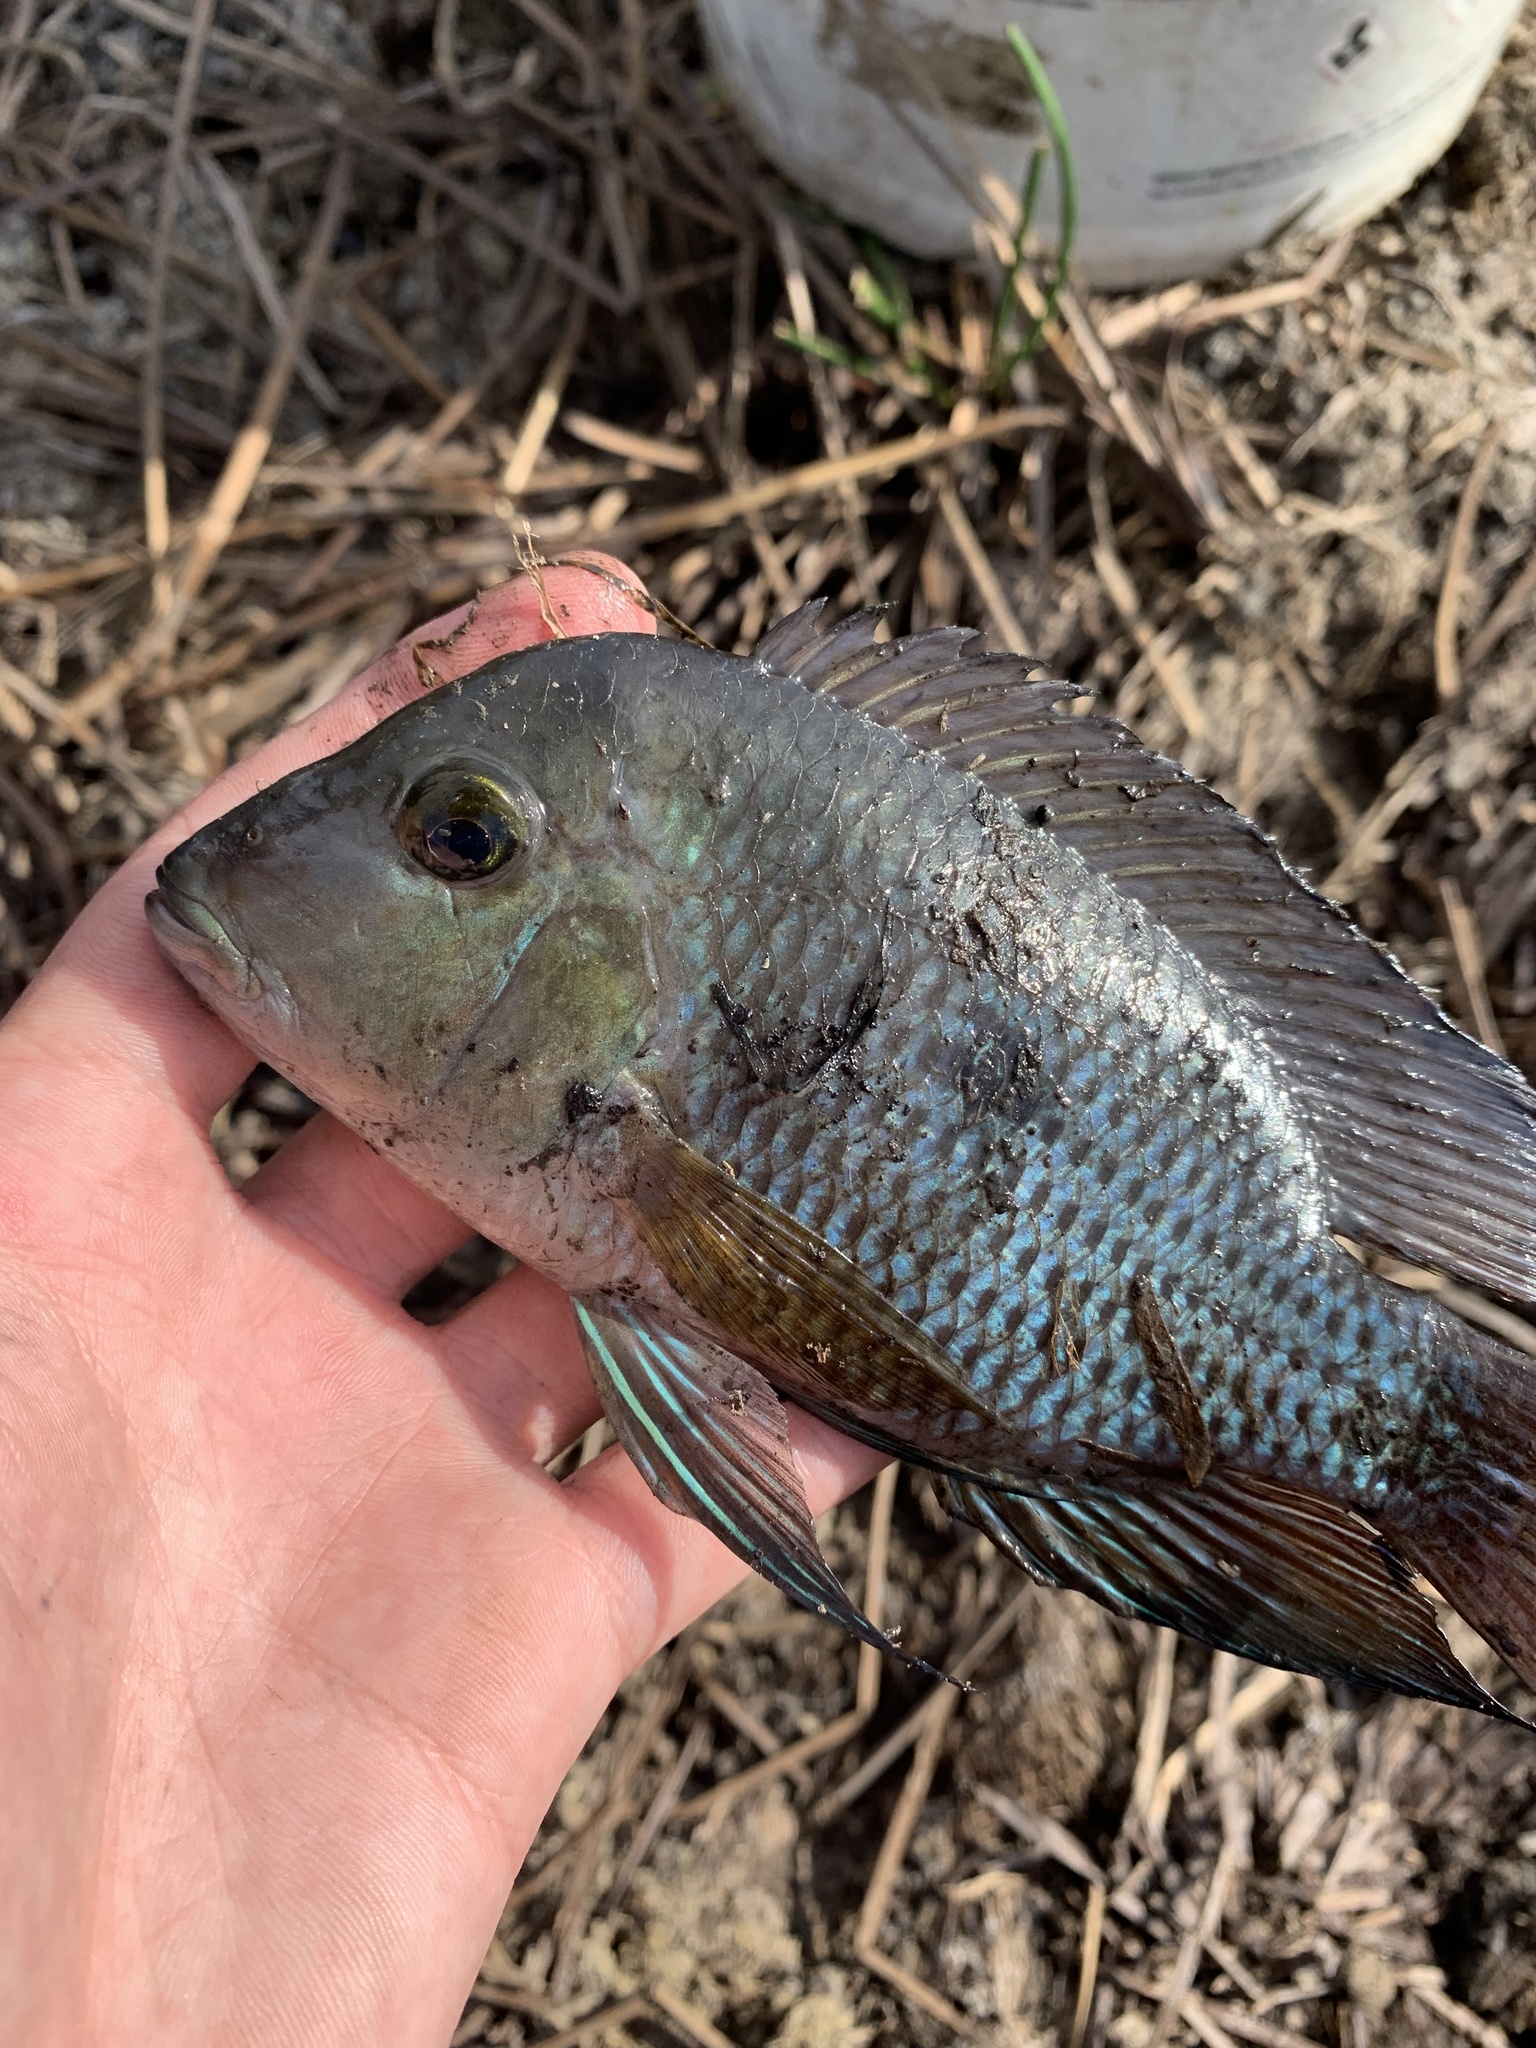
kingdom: Animalia
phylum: Chordata
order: Perciformes
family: Cichlidae
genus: Geophagus
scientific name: Geophagus brasiliensis
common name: Braziliensis
